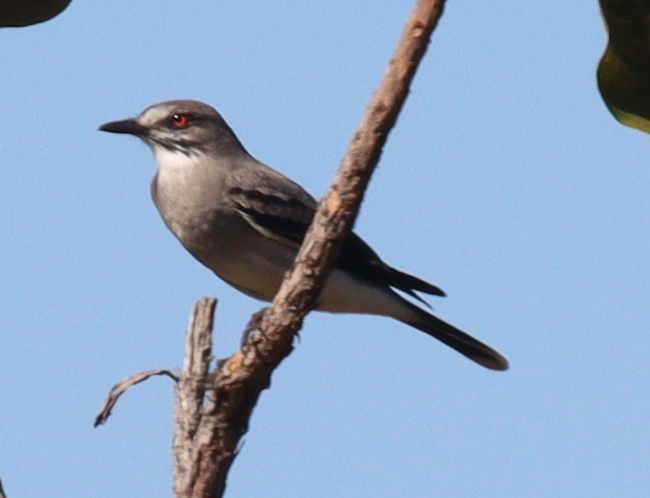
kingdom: Animalia
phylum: Chordata
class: Aves
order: Passeriformes
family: Tyrannidae
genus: Xolmis
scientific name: Xolmis cinereus
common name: Grey monjita
